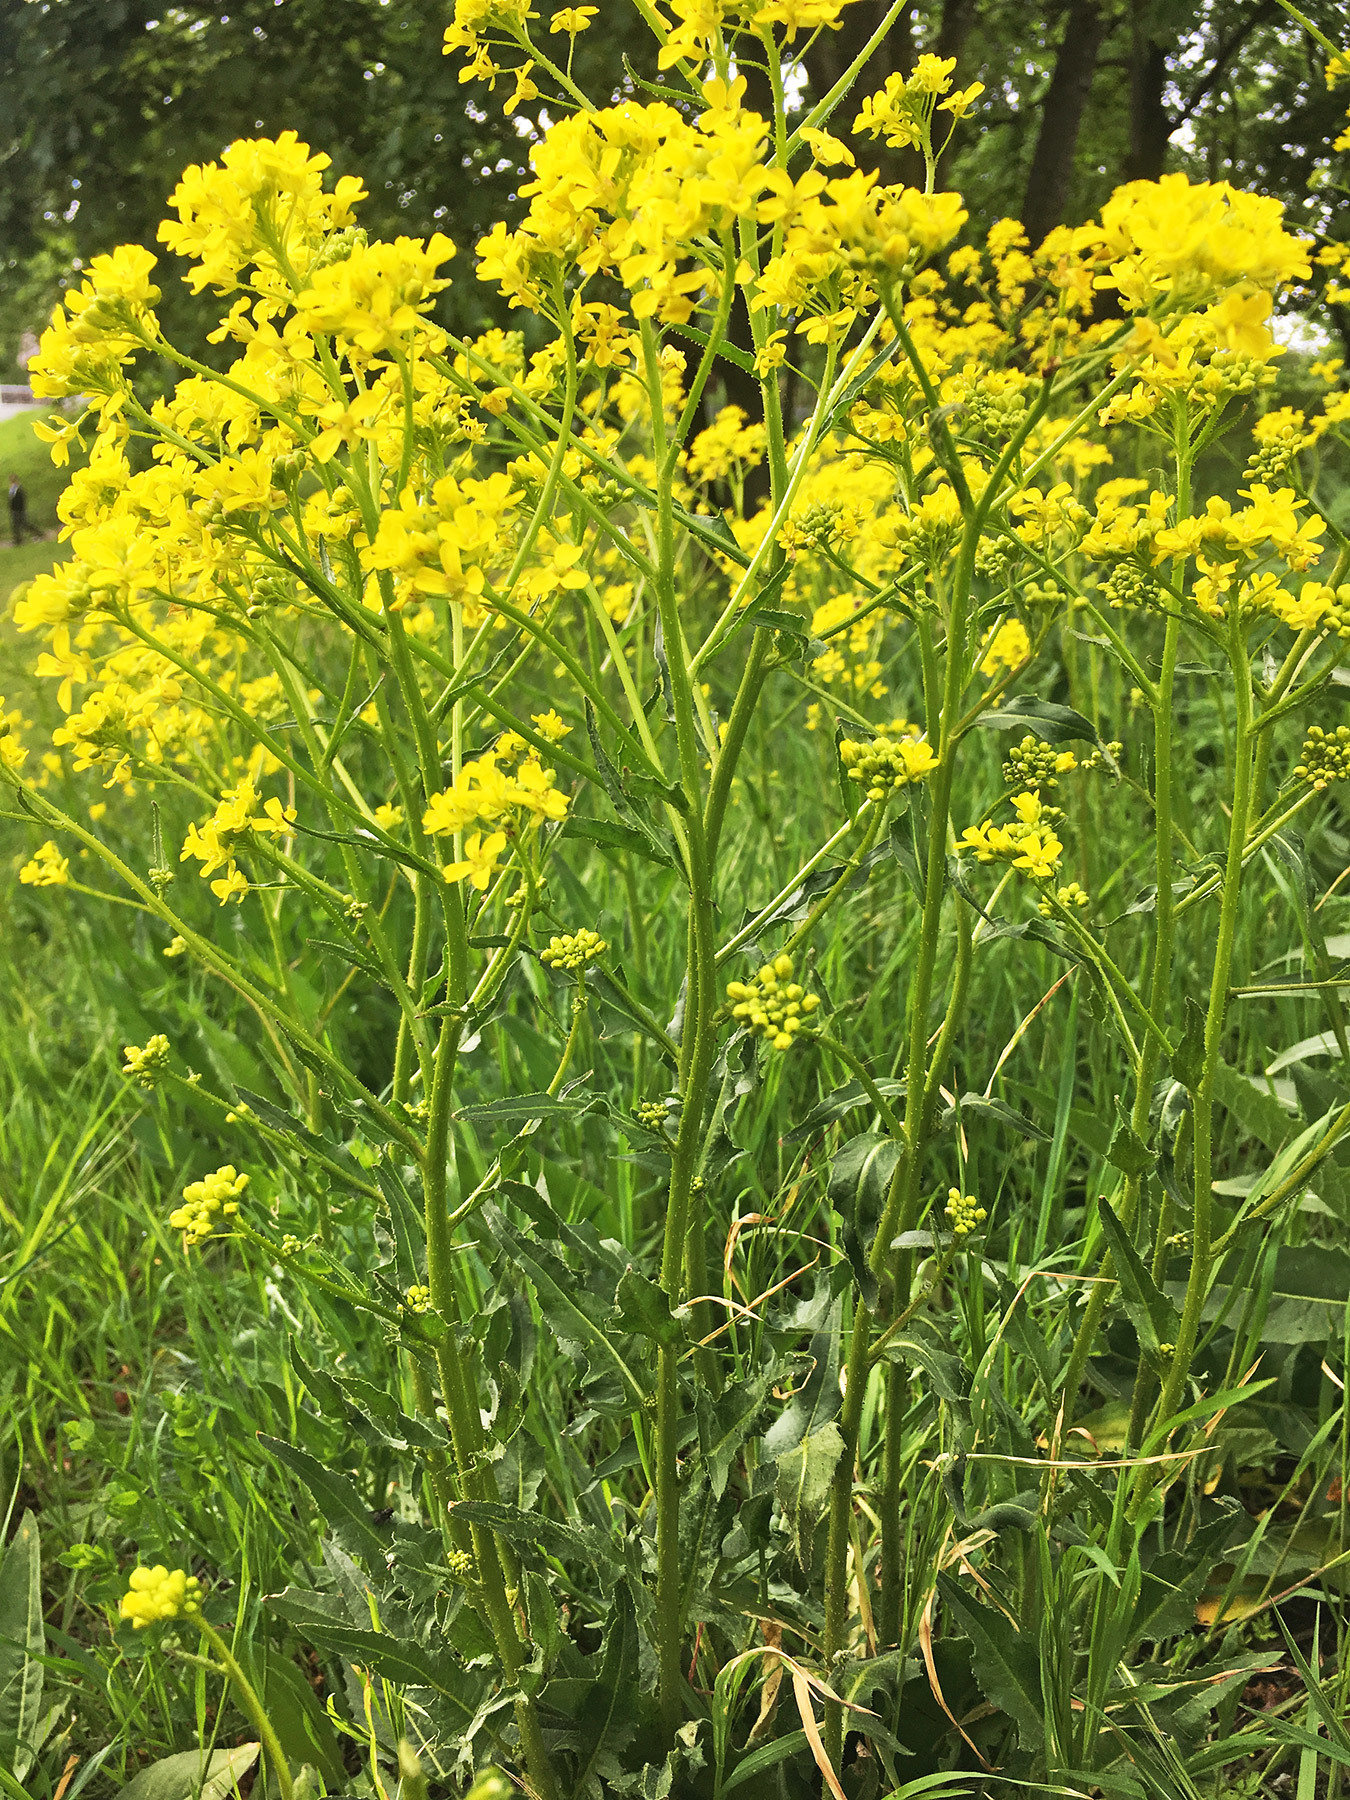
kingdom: Plantae
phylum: Tracheophyta
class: Magnoliopsida
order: Brassicales
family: Brassicaceae
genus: Bunias
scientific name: Bunias orientalis
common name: Warty-cabbage
